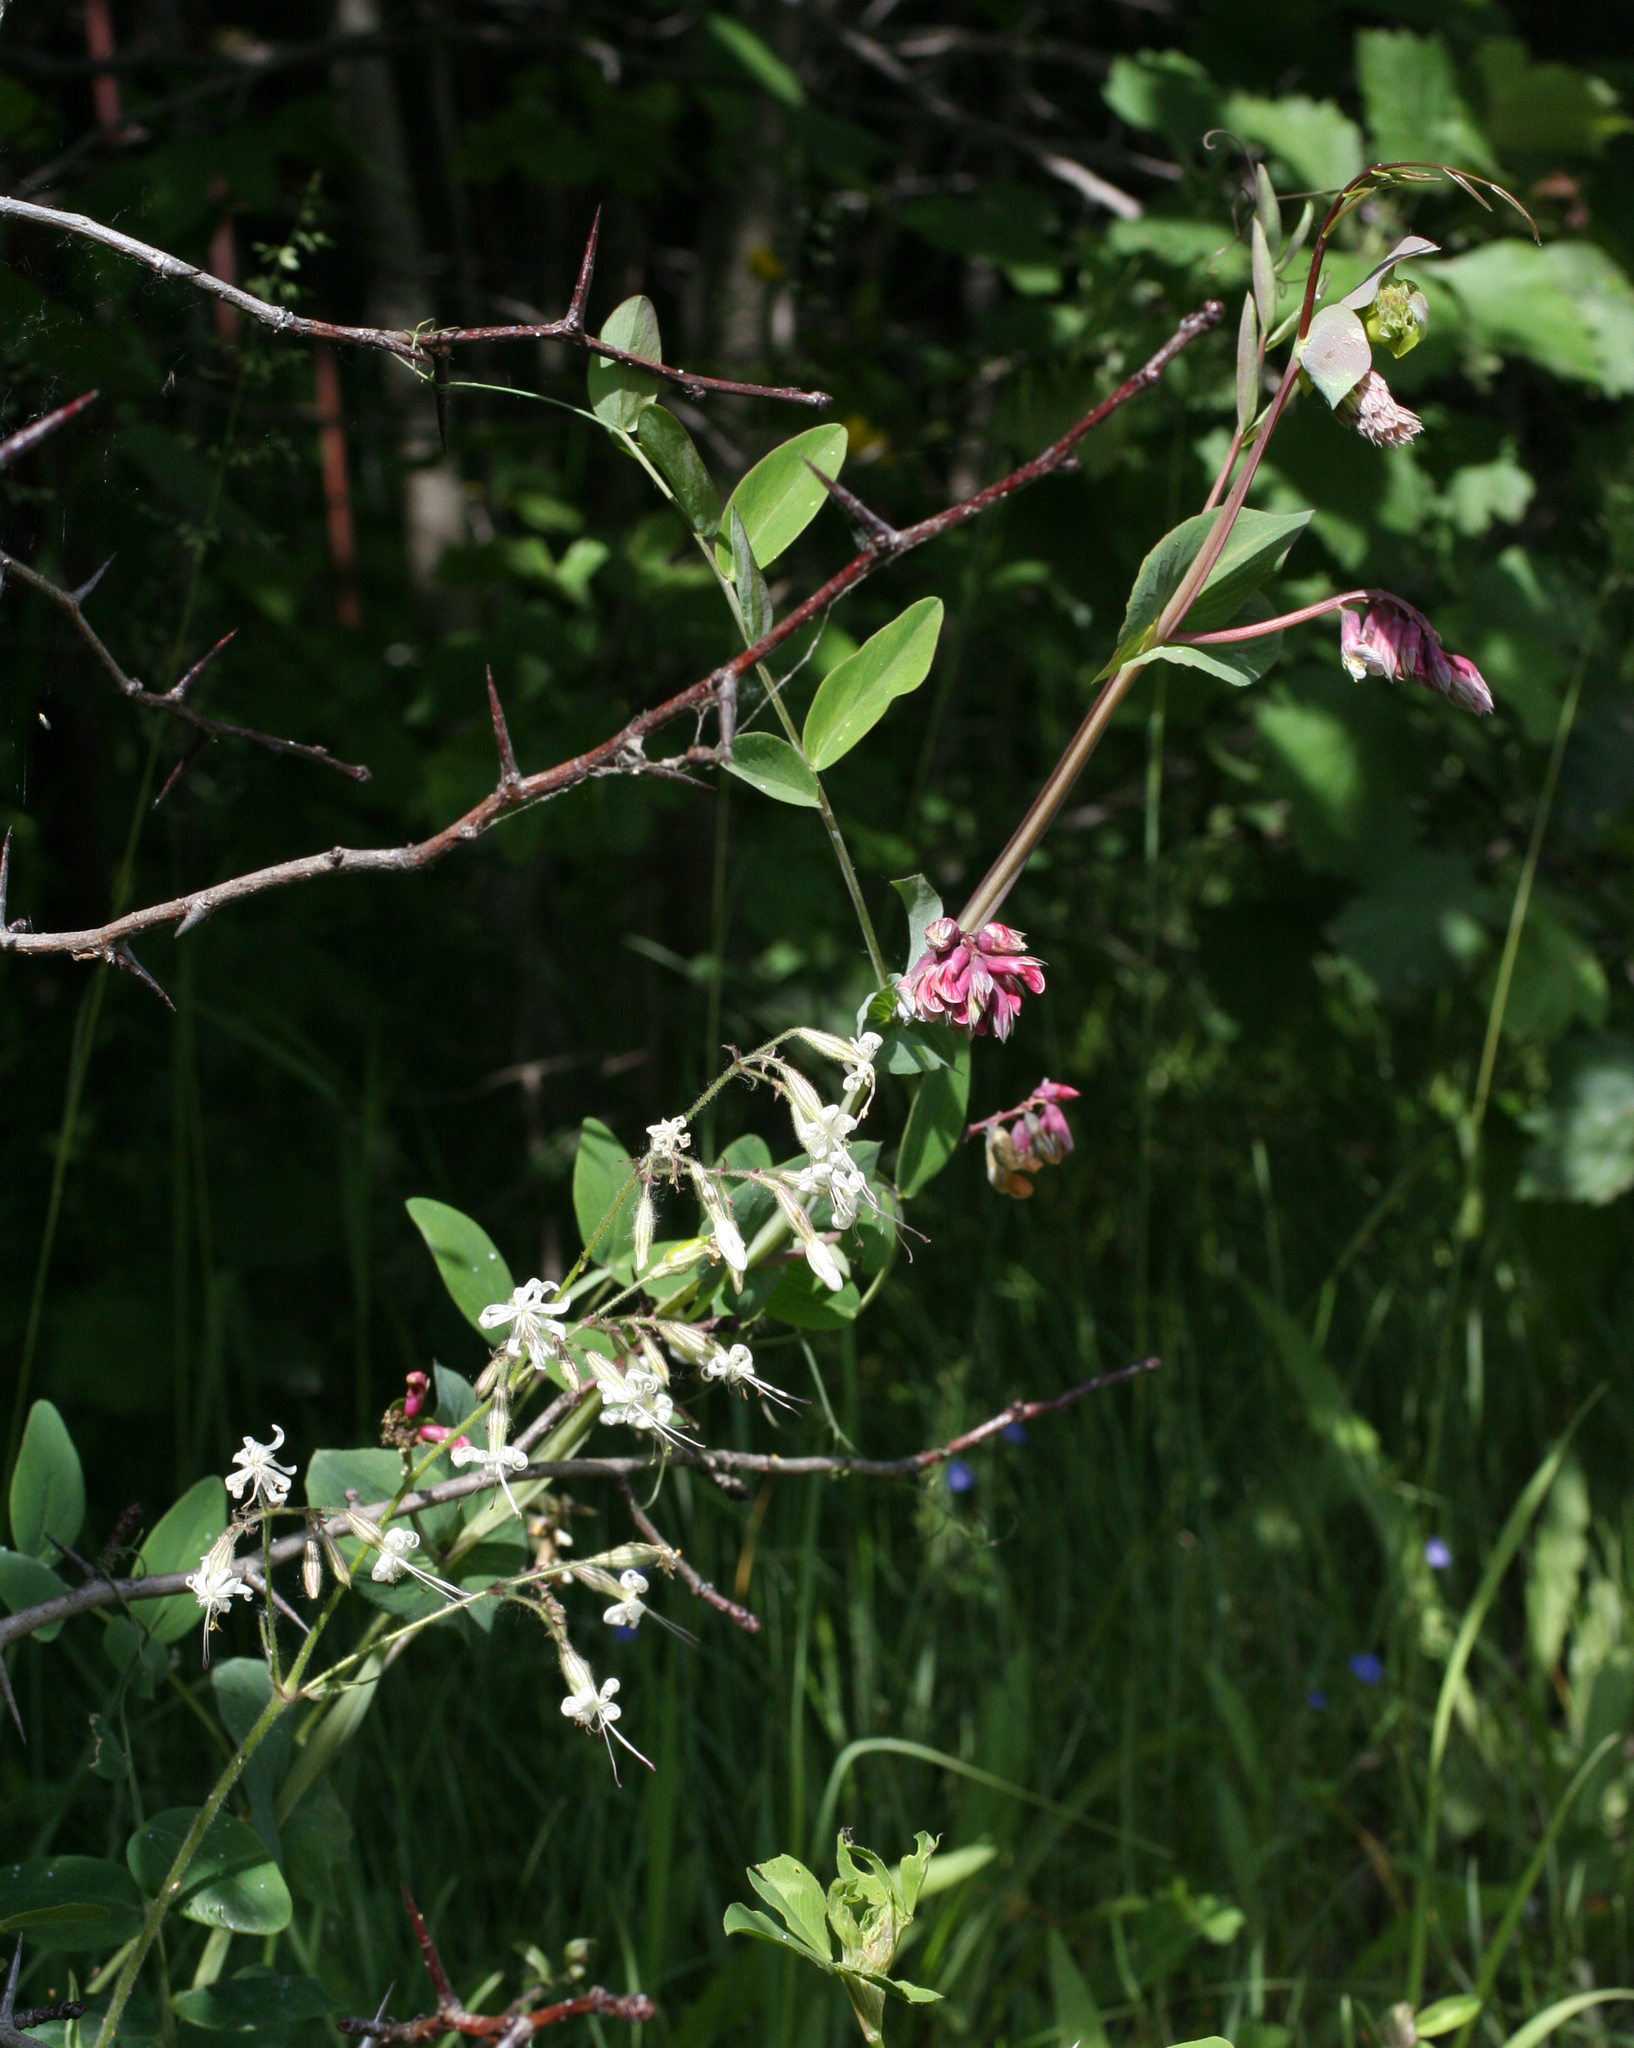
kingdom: Plantae
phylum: Tracheophyta
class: Magnoliopsida
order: Fabales
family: Fabaceae
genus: Lathyrus
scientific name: Lathyrus pisiformis
